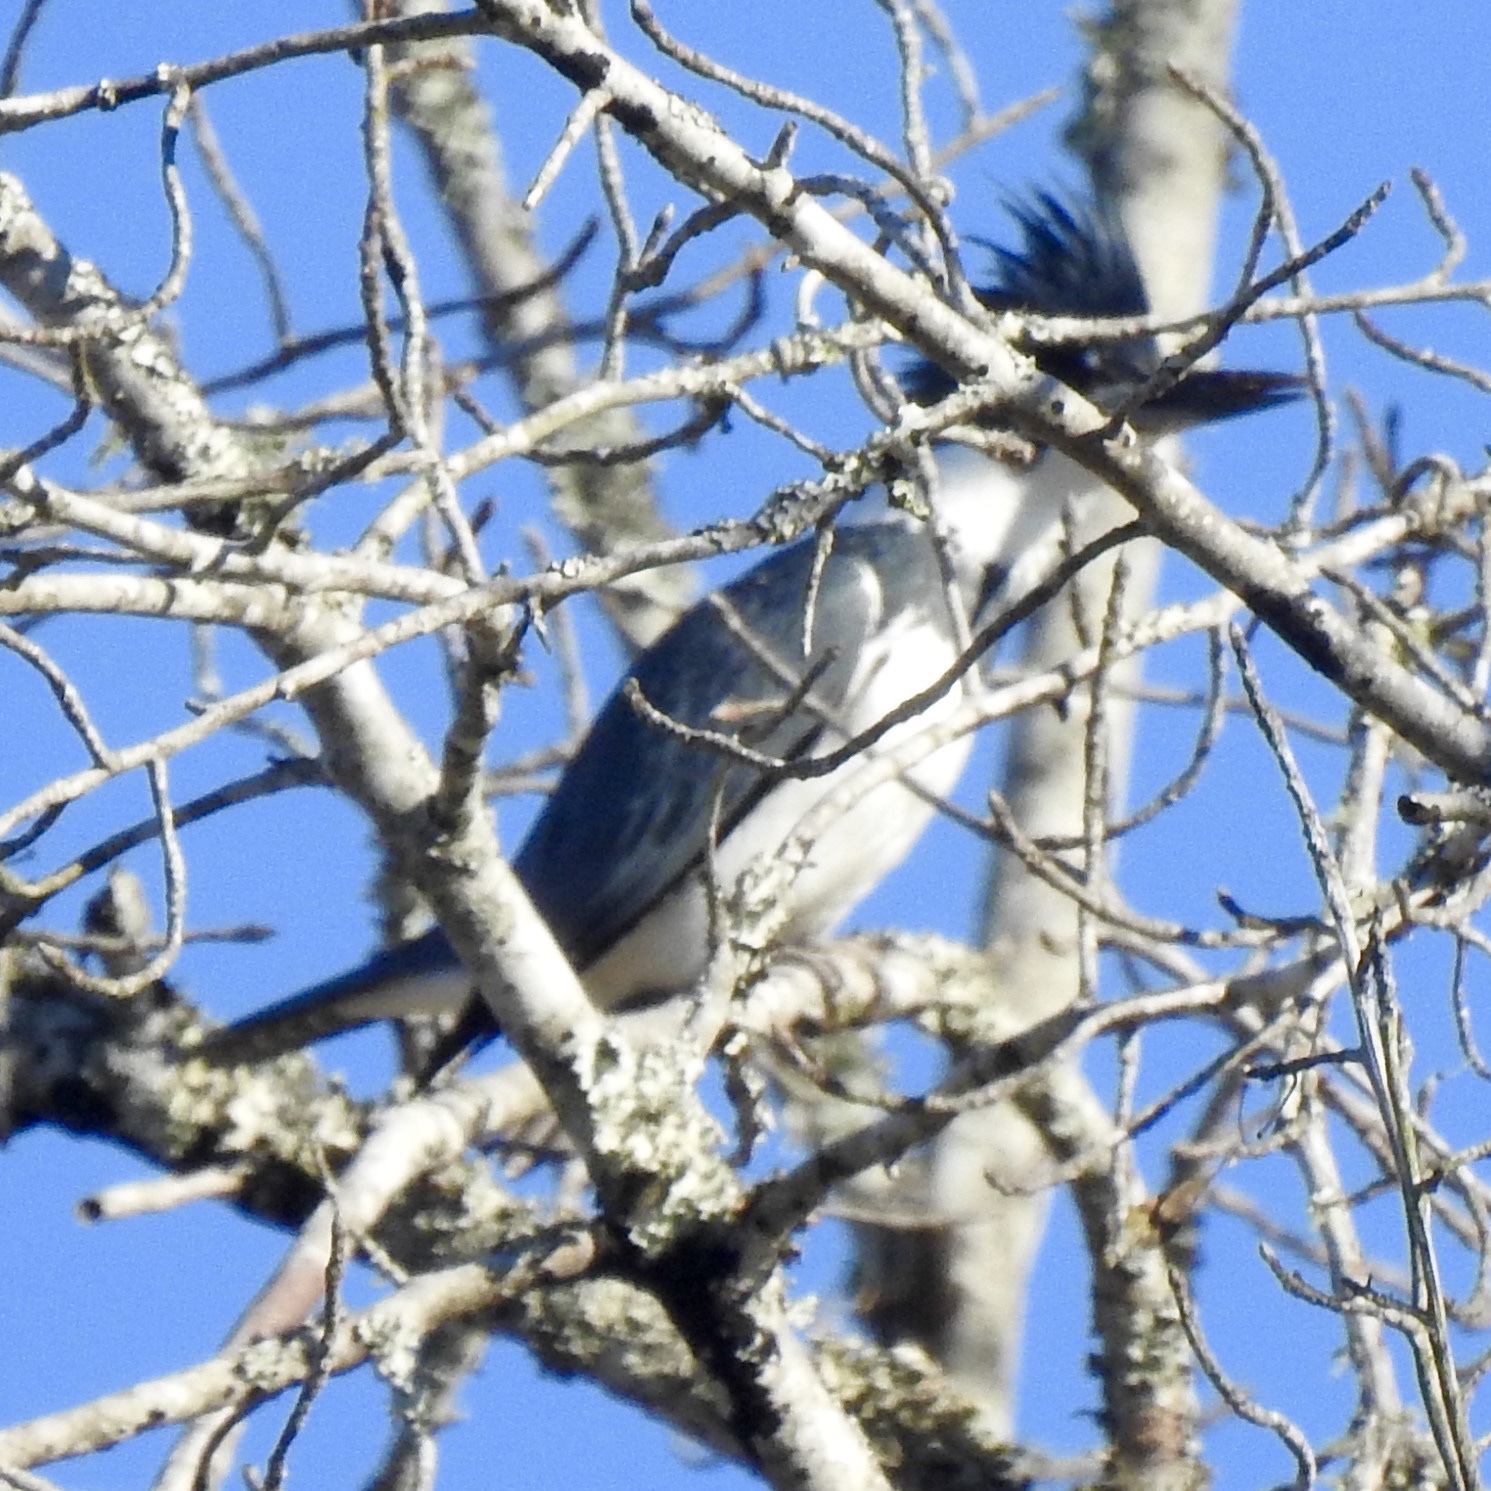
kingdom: Animalia
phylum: Chordata
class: Aves
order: Coraciiformes
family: Alcedinidae
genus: Megaceryle
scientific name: Megaceryle alcyon
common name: Belted kingfisher
